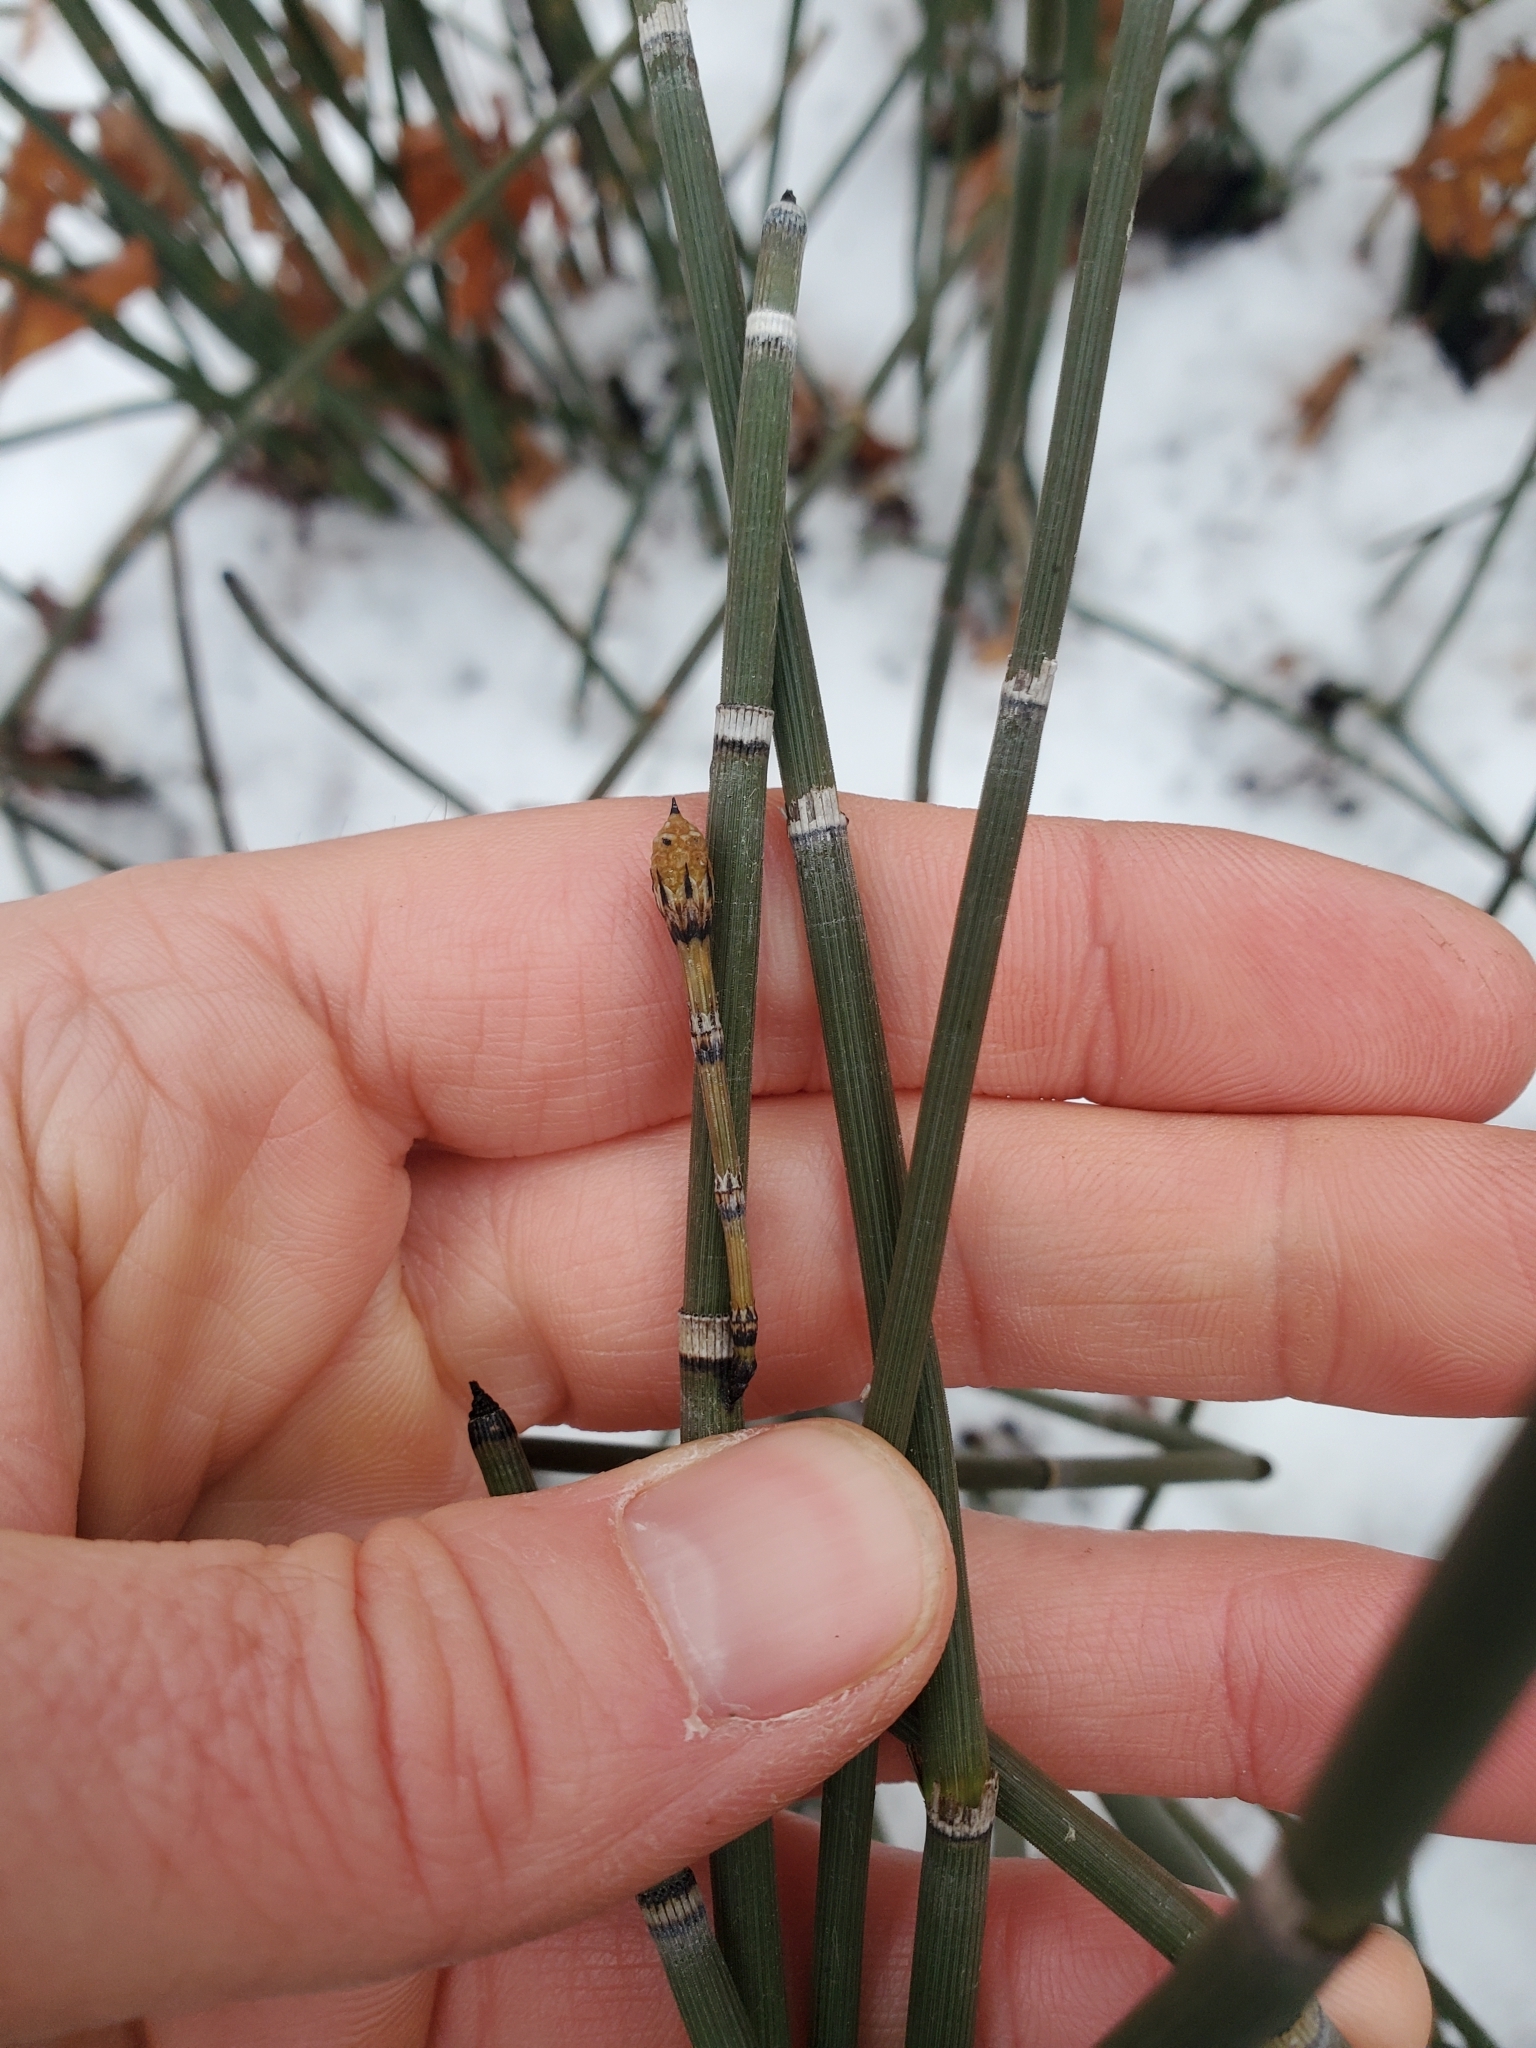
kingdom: Plantae
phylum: Tracheophyta
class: Polypodiopsida
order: Equisetales
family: Equisetaceae
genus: Equisetum
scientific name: Equisetum hyemale
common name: Rough horsetail
